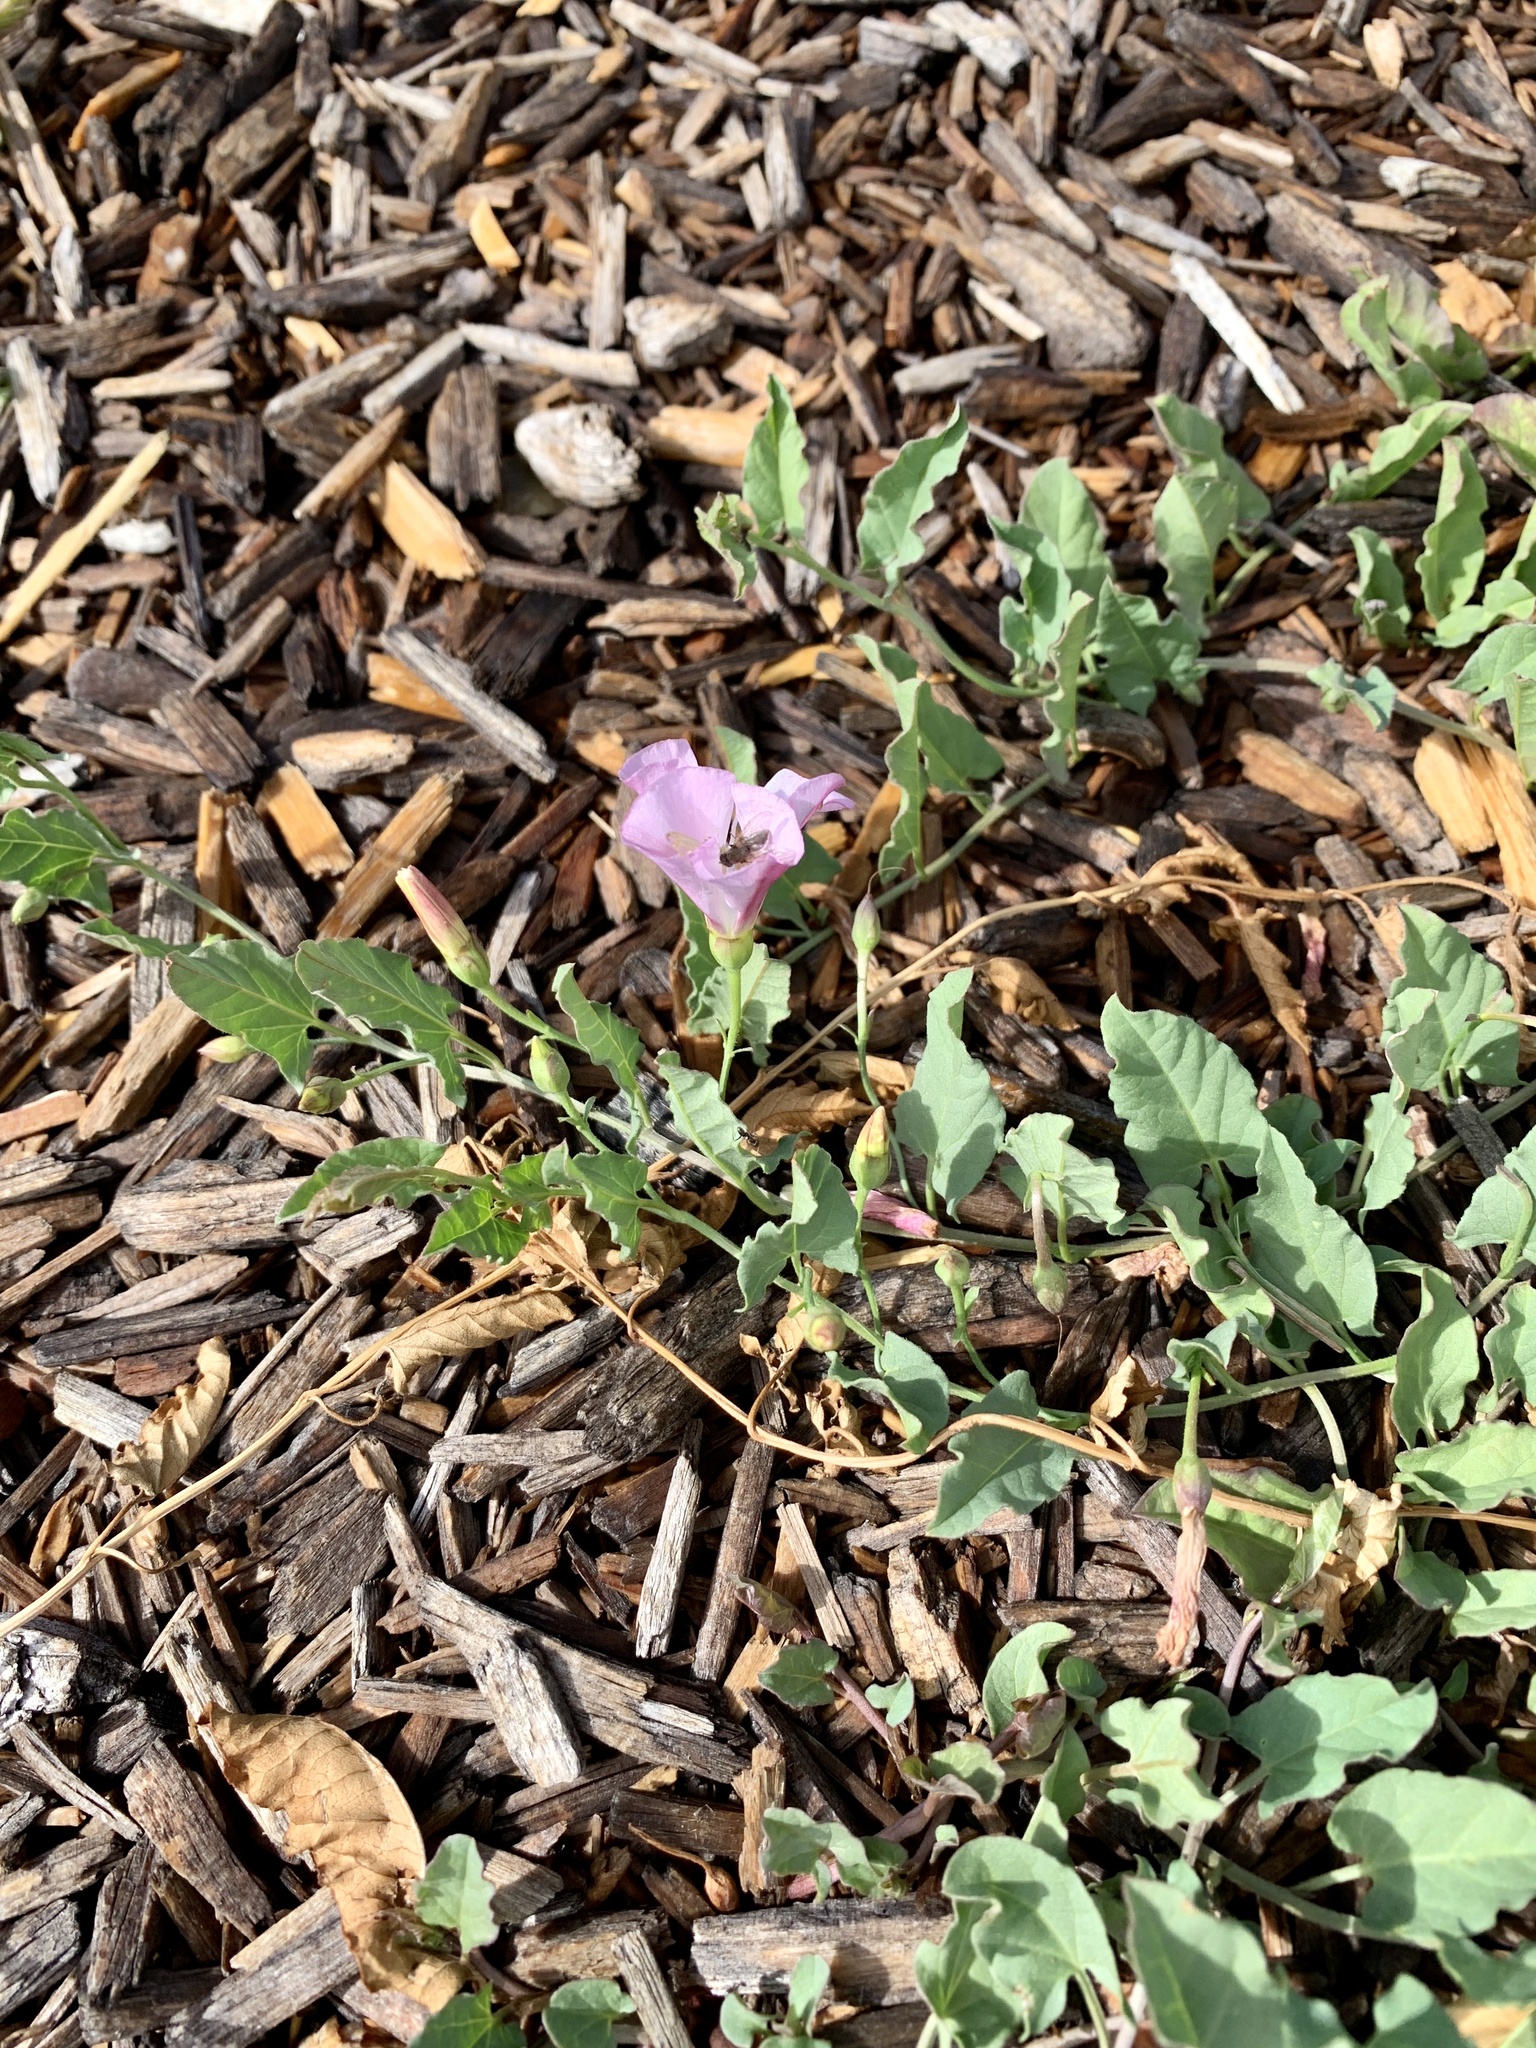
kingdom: Plantae
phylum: Tracheophyta
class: Magnoliopsida
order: Solanales
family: Convolvulaceae
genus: Convolvulus
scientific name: Convolvulus arvensis
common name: Field bindweed
